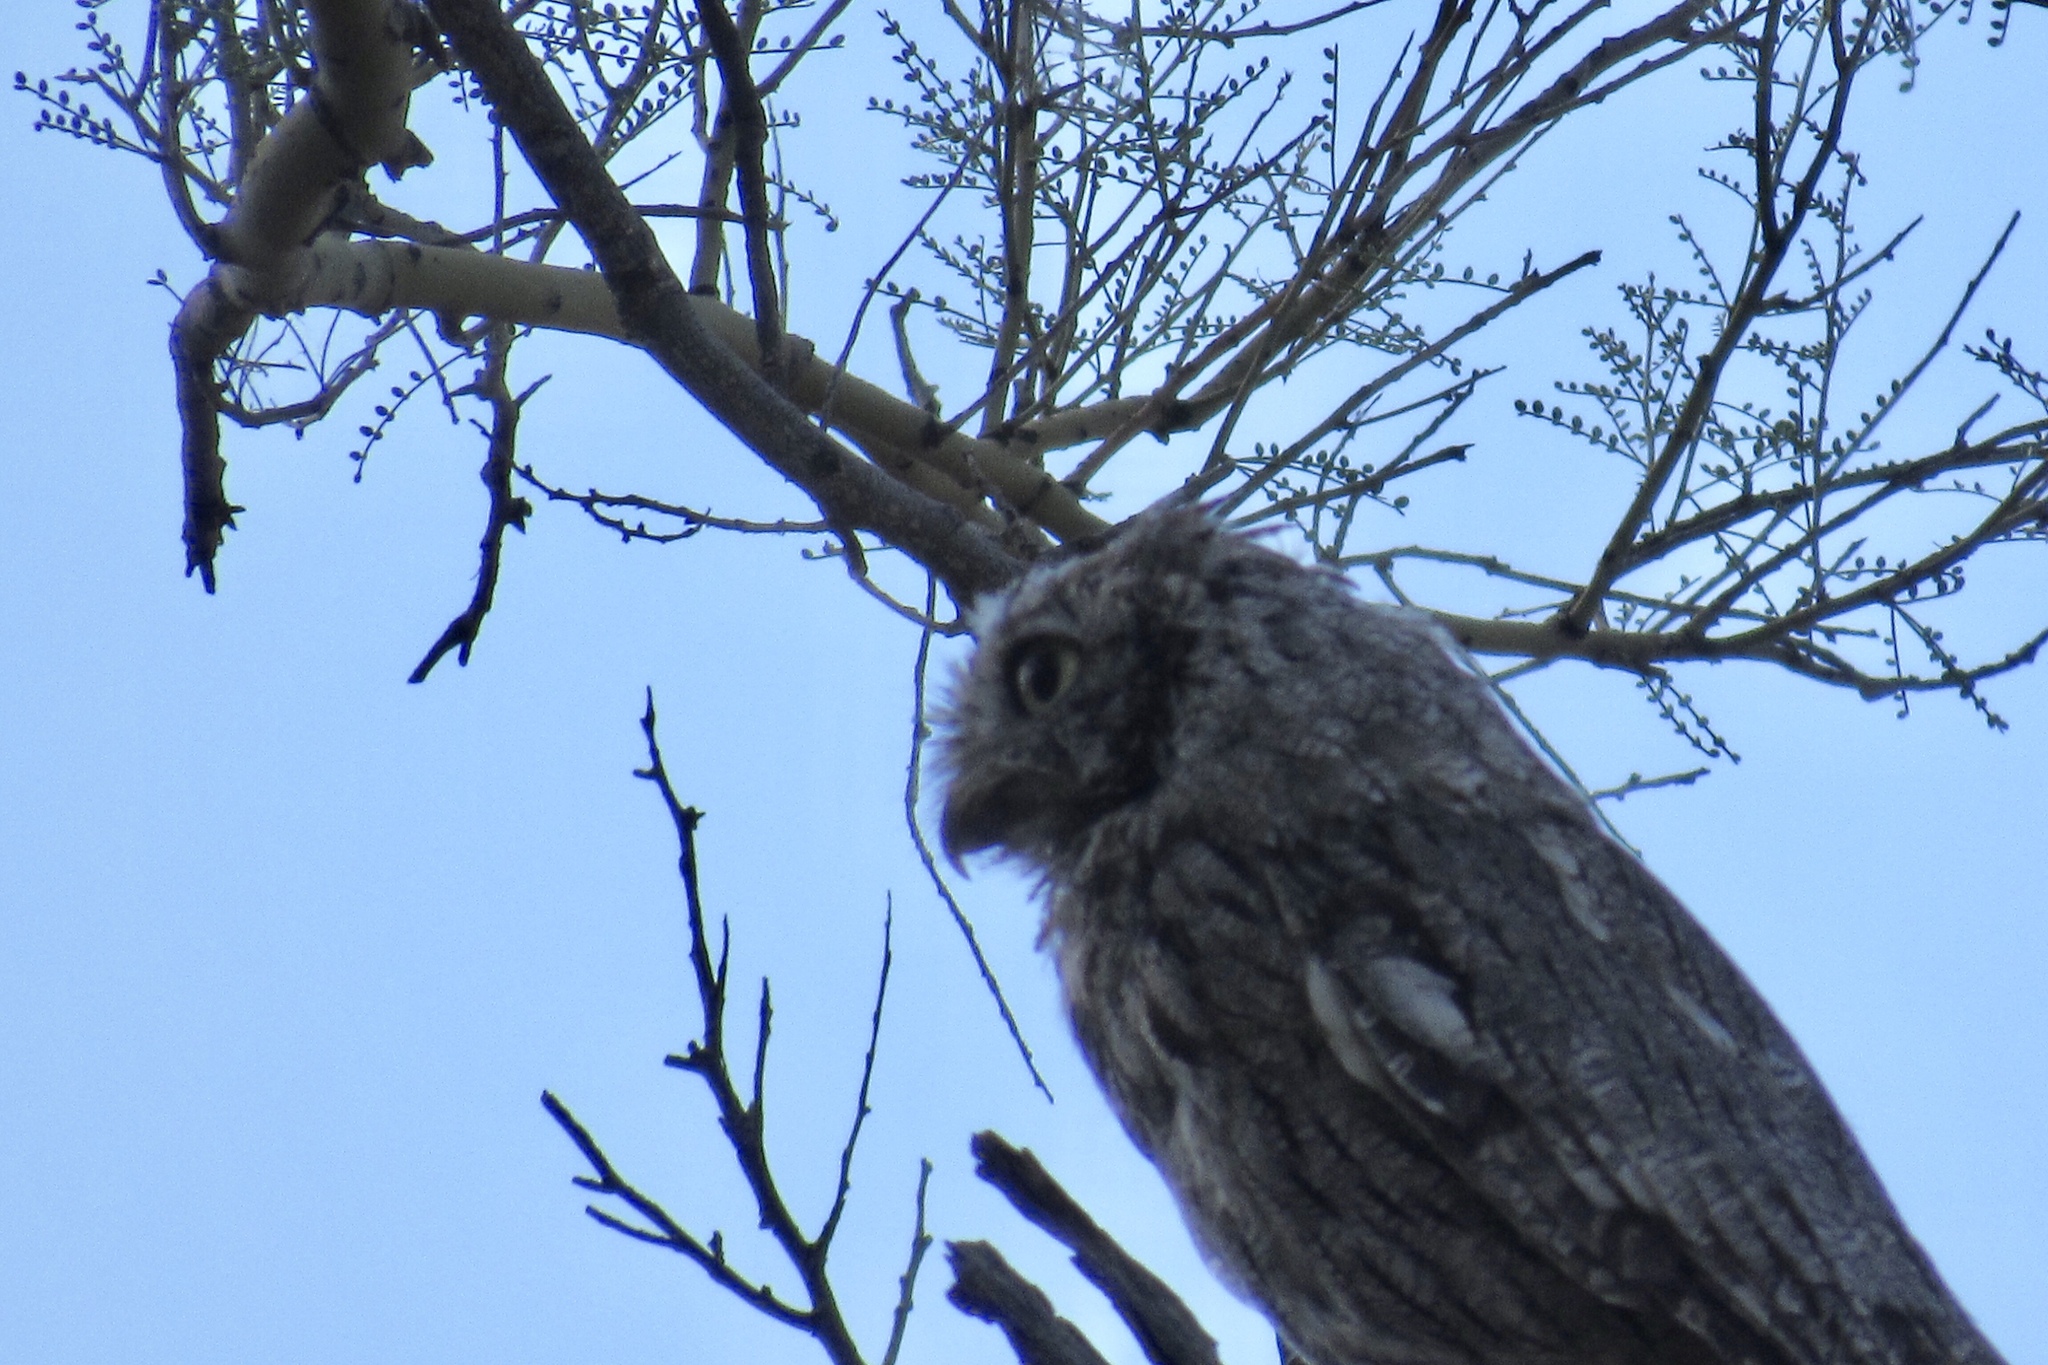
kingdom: Animalia
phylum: Chordata
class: Aves
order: Strigiformes
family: Strigidae
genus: Megascops
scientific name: Megascops kennicottii
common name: Western screech-owl
